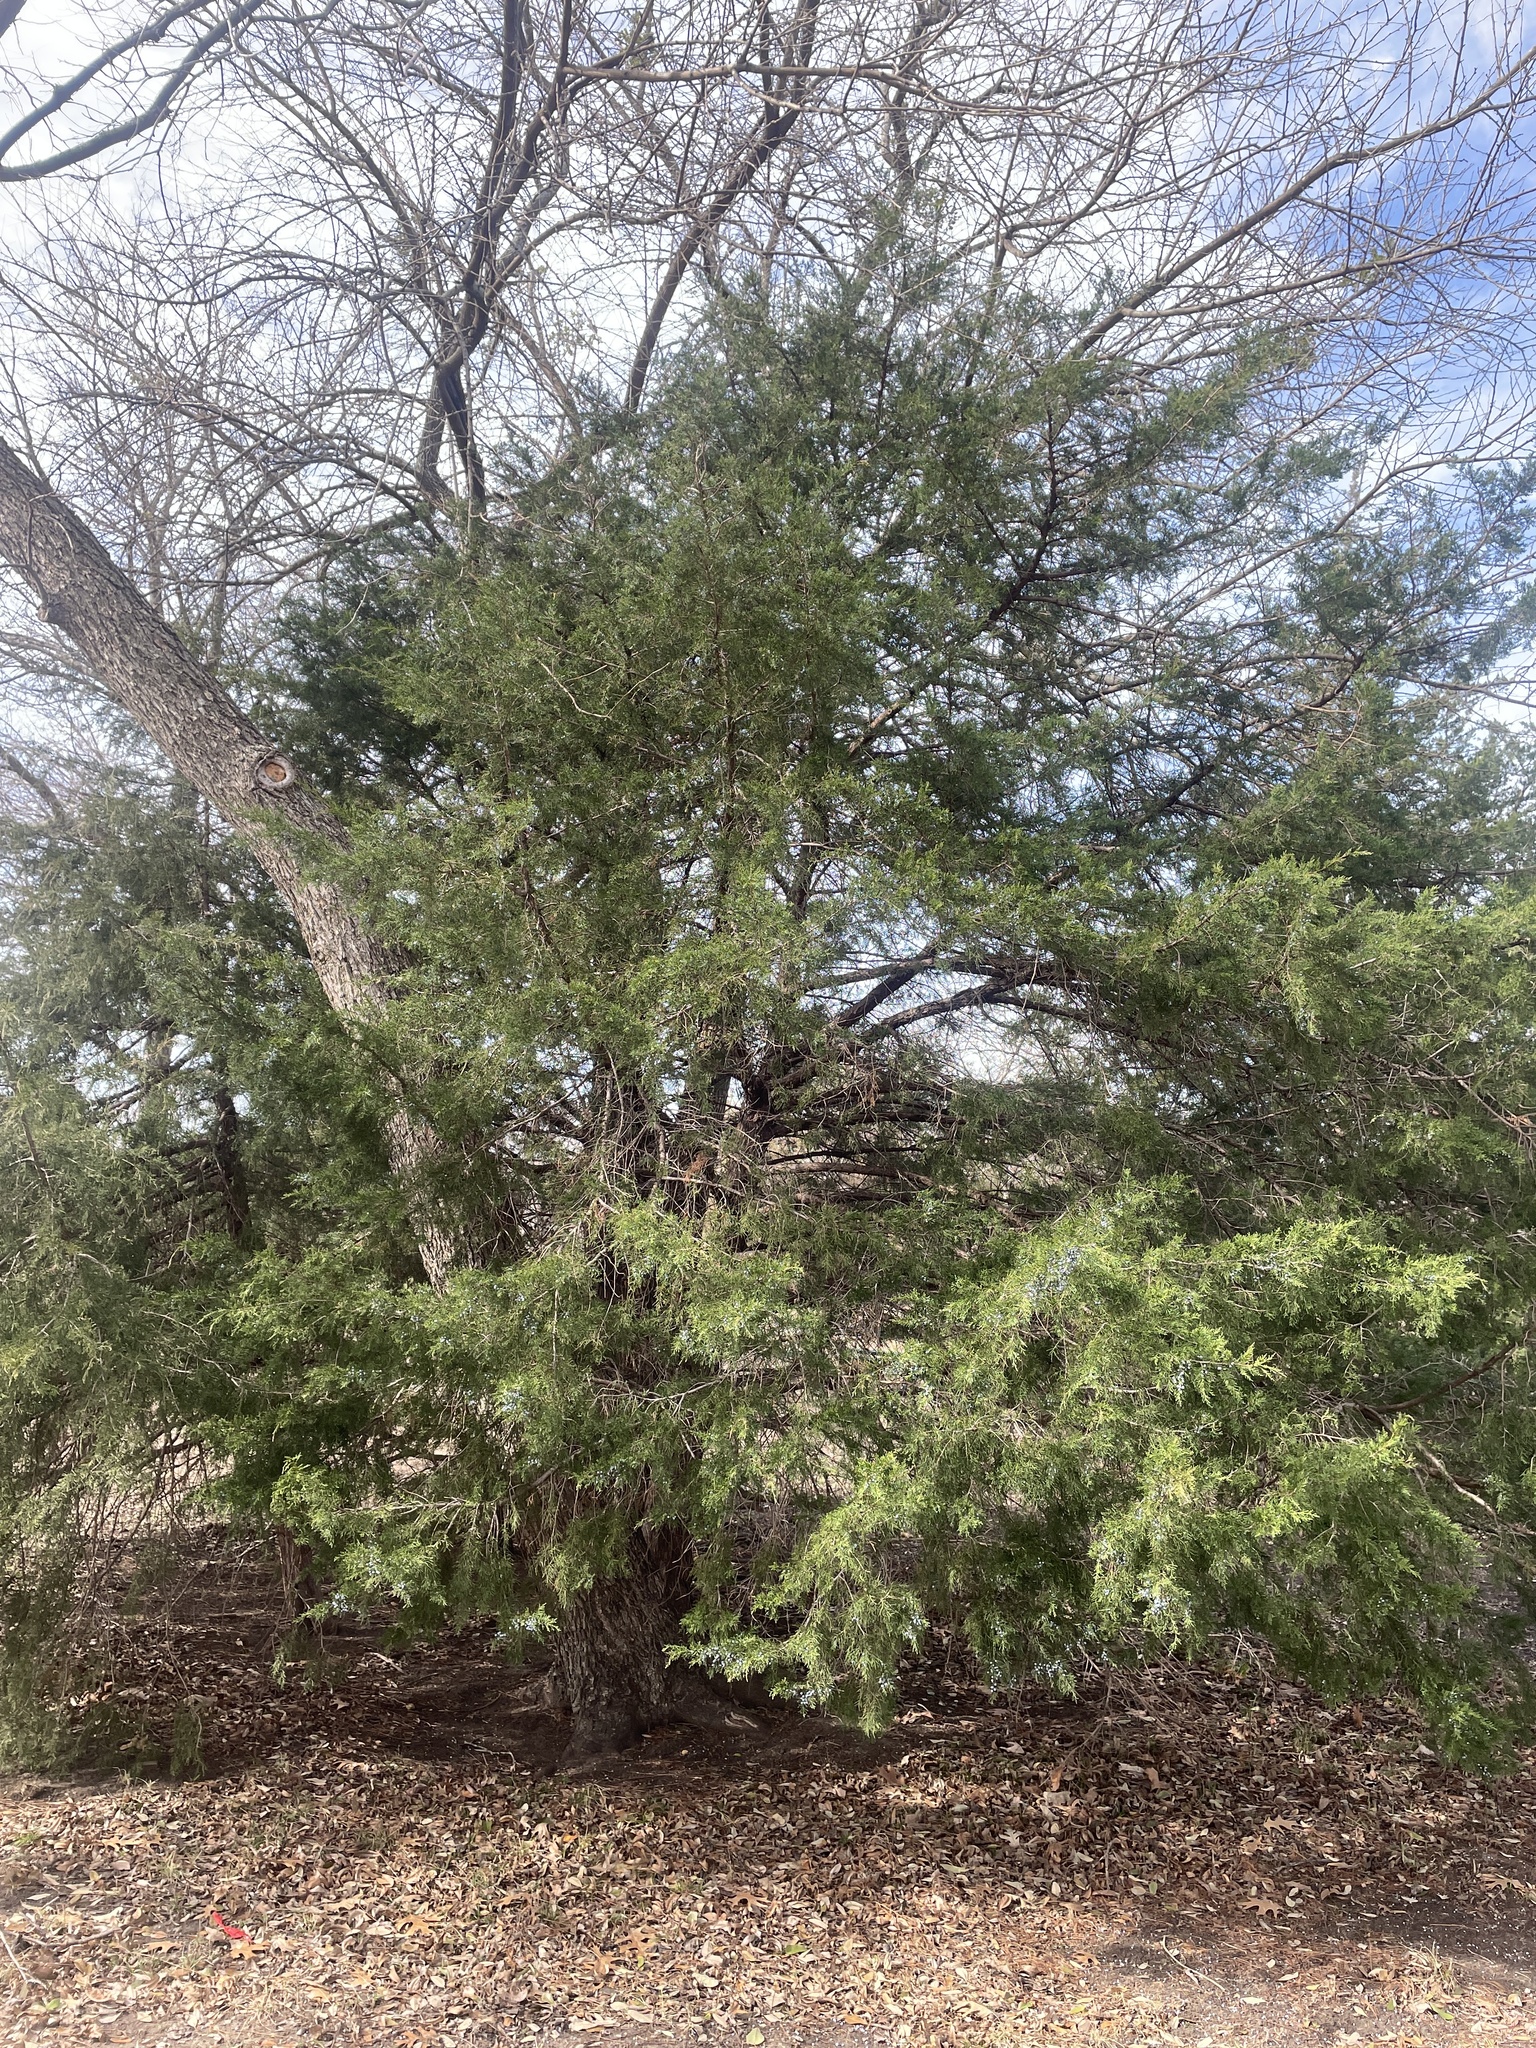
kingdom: Plantae
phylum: Tracheophyta
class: Pinopsida
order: Pinales
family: Cupressaceae
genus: Juniperus
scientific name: Juniperus virginiana
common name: Red juniper
